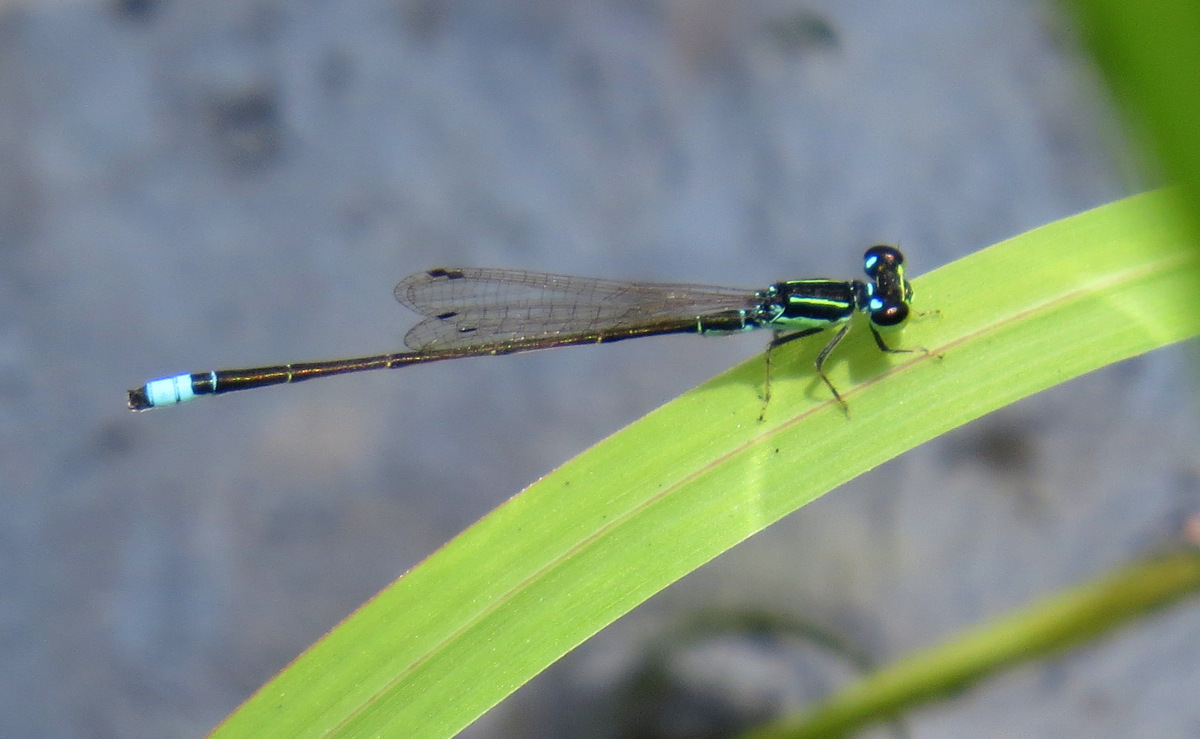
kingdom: Animalia
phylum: Arthropoda
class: Insecta
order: Odonata
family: Coenagrionidae
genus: Ischnura
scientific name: Ischnura capreolus
